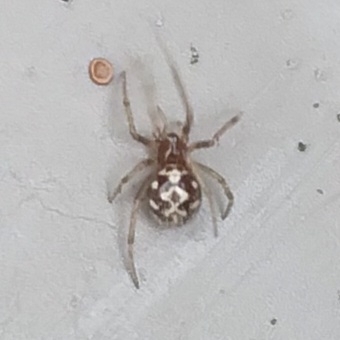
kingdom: Animalia
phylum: Arthropoda
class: Arachnida
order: Araneae
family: Theridiidae
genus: Steatoda
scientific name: Steatoda triangulosa
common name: Triangulate bud spider
